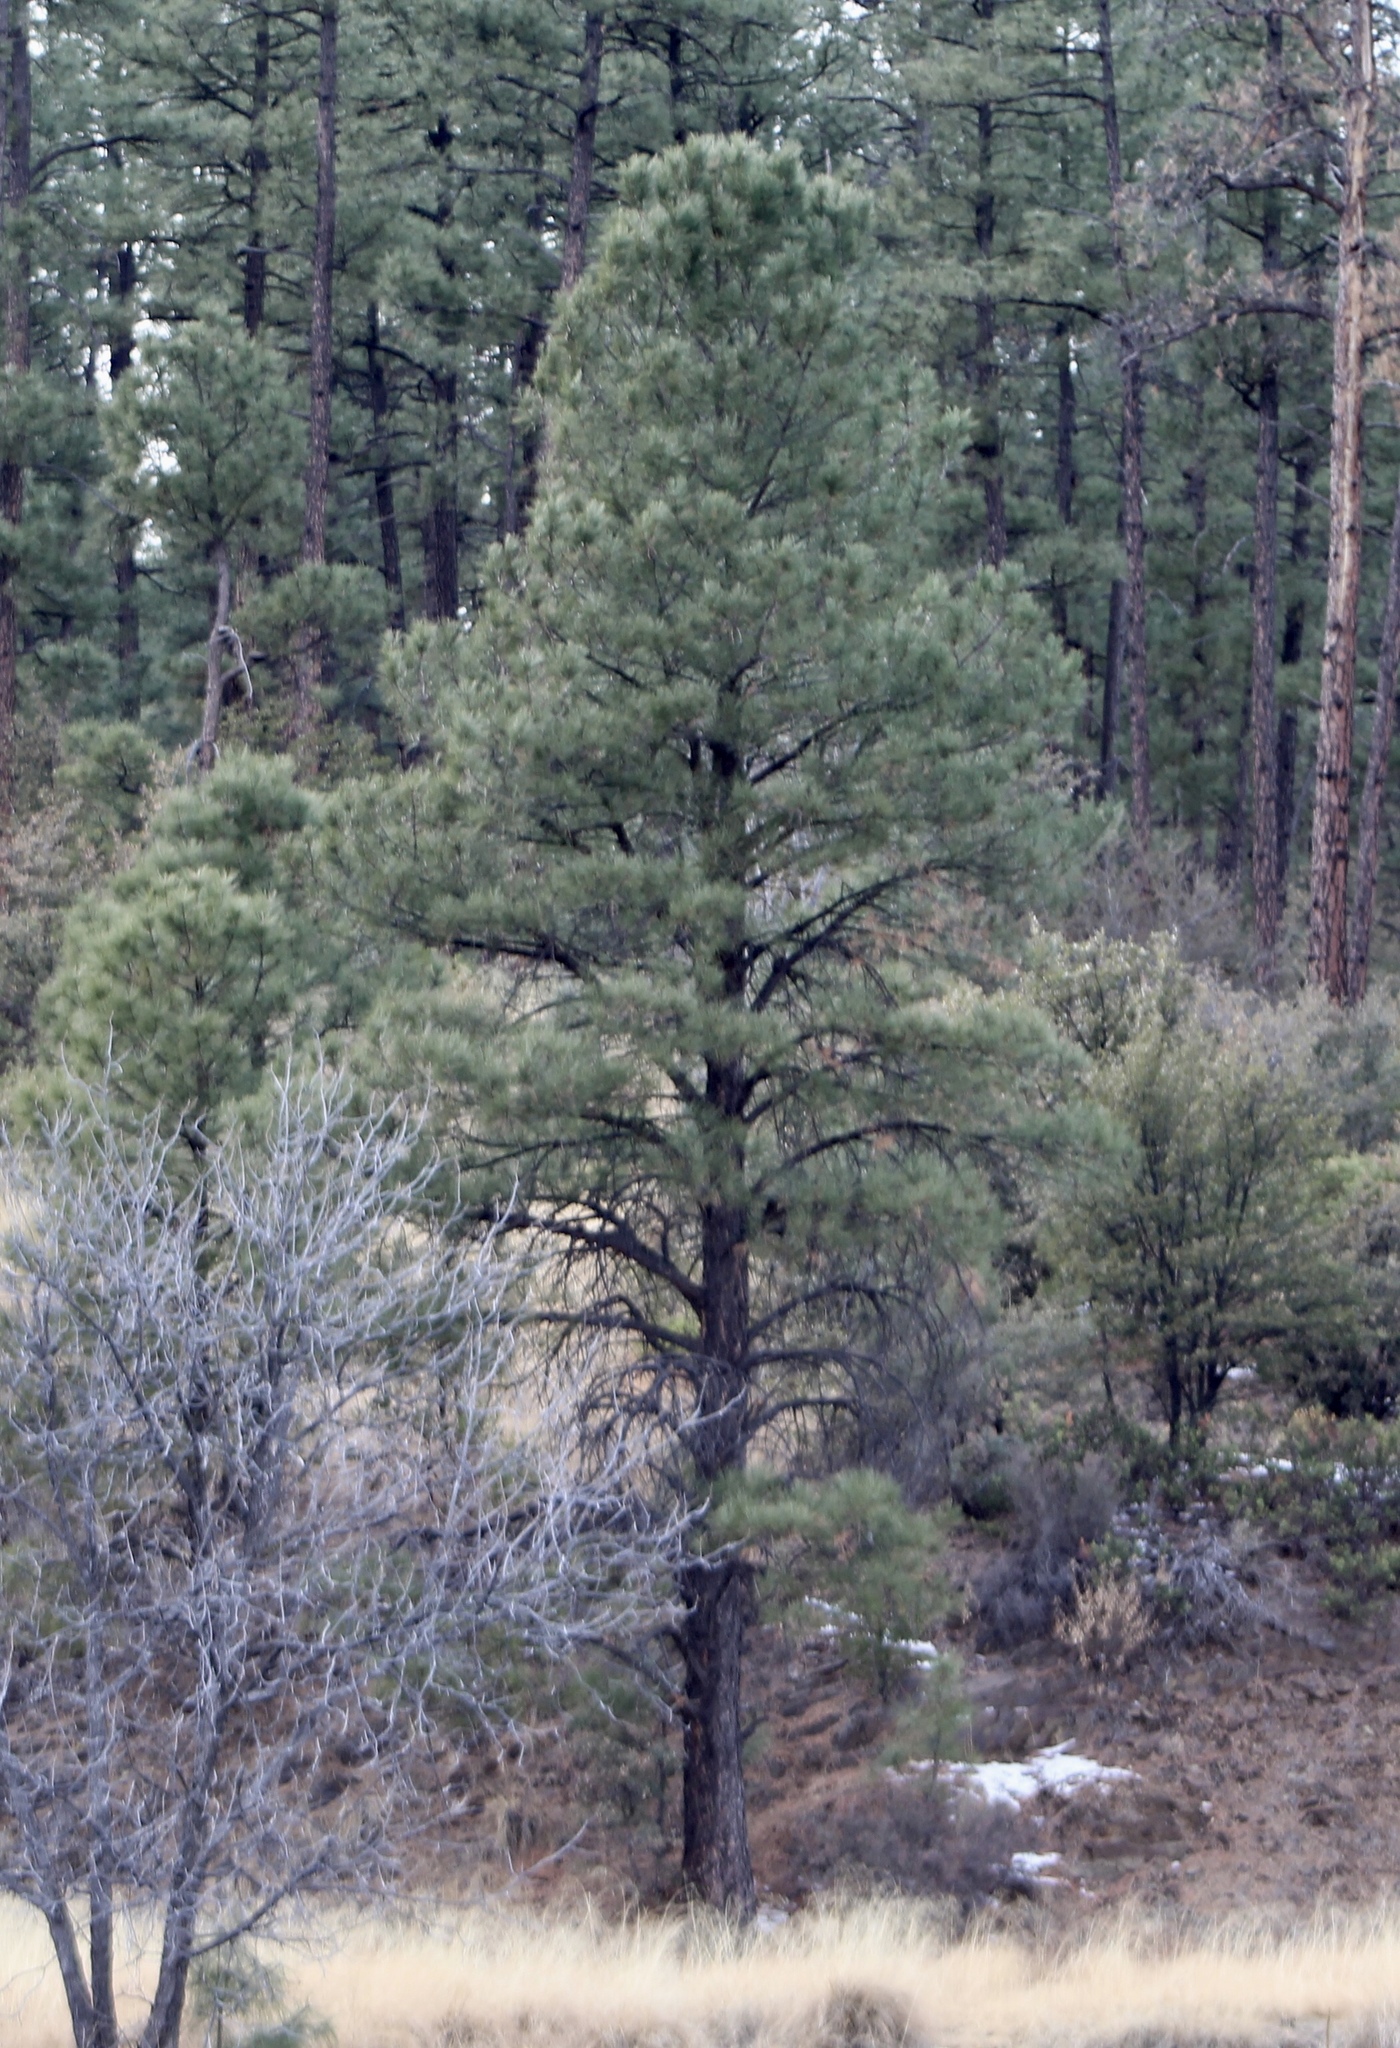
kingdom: Plantae
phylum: Tracheophyta
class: Pinopsida
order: Pinales
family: Pinaceae
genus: Pinus
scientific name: Pinus ponderosa
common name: Western yellow-pine
